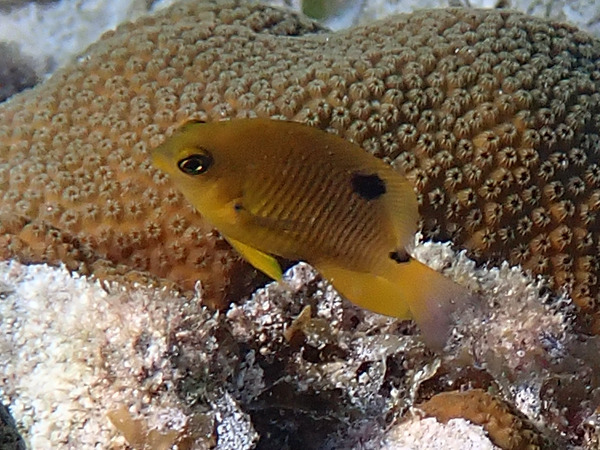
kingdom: Animalia
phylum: Chordata
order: Perciformes
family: Pomacentridae
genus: Stegastes
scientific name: Stegastes planifrons
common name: Threespot damselfish
